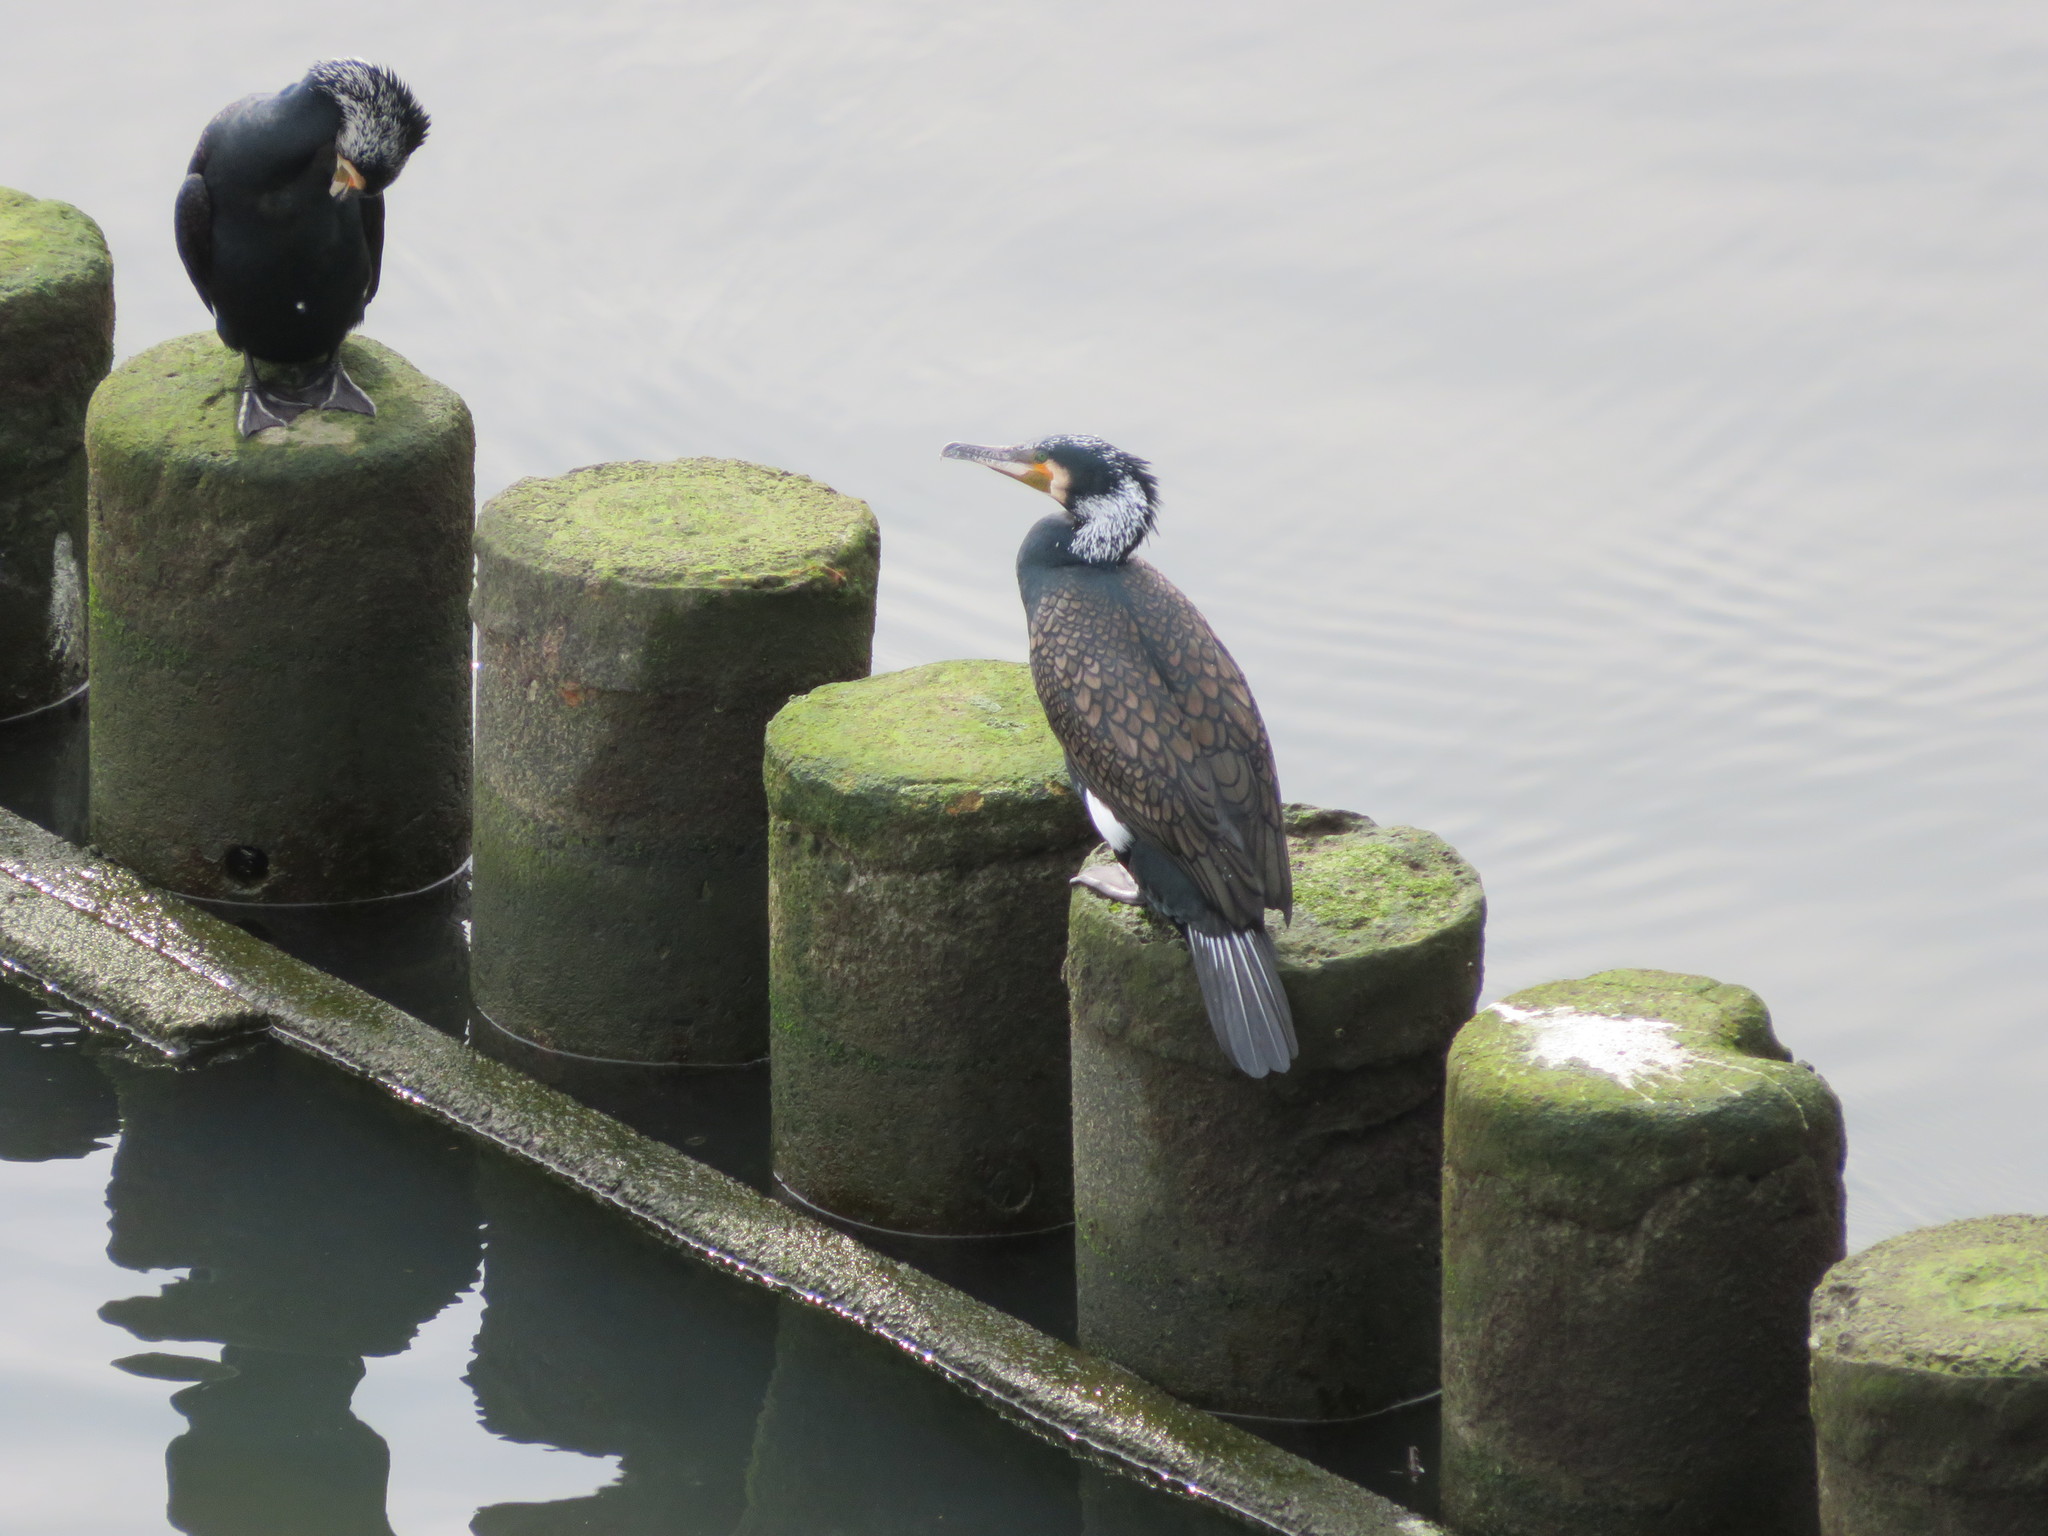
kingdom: Animalia
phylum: Chordata
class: Aves
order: Suliformes
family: Phalacrocoracidae
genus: Phalacrocorax
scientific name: Phalacrocorax carbo
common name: Great cormorant
